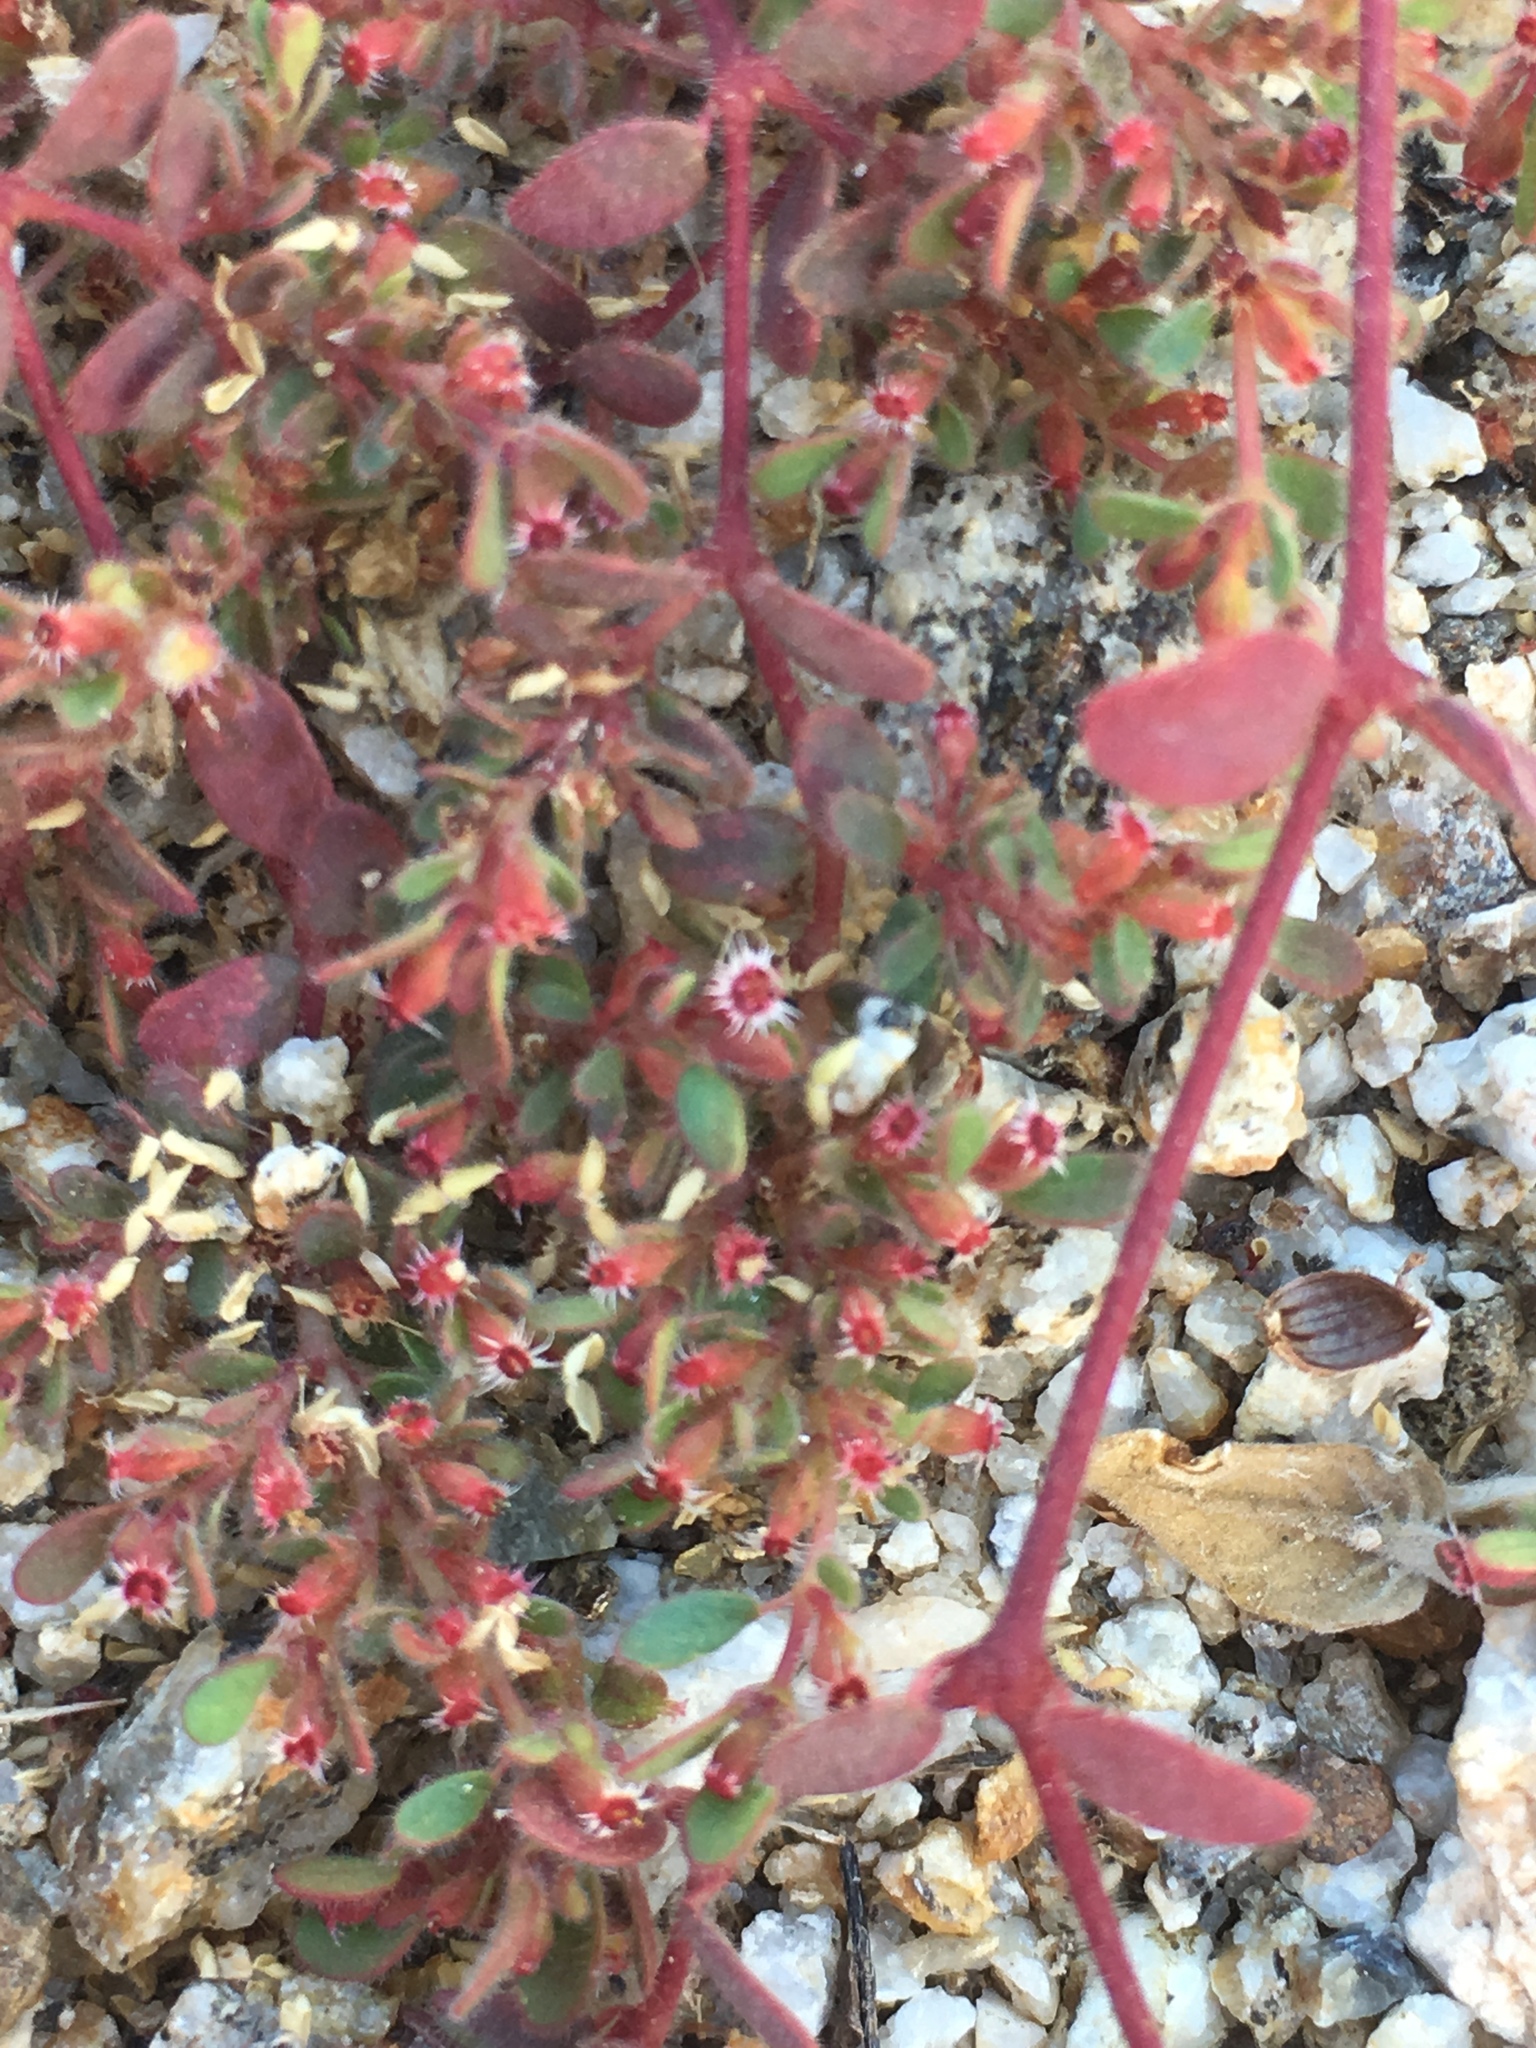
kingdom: Plantae
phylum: Tracheophyta
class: Magnoliopsida
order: Malpighiales
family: Euphorbiaceae
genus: Euphorbia
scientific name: Euphorbia setiloba
